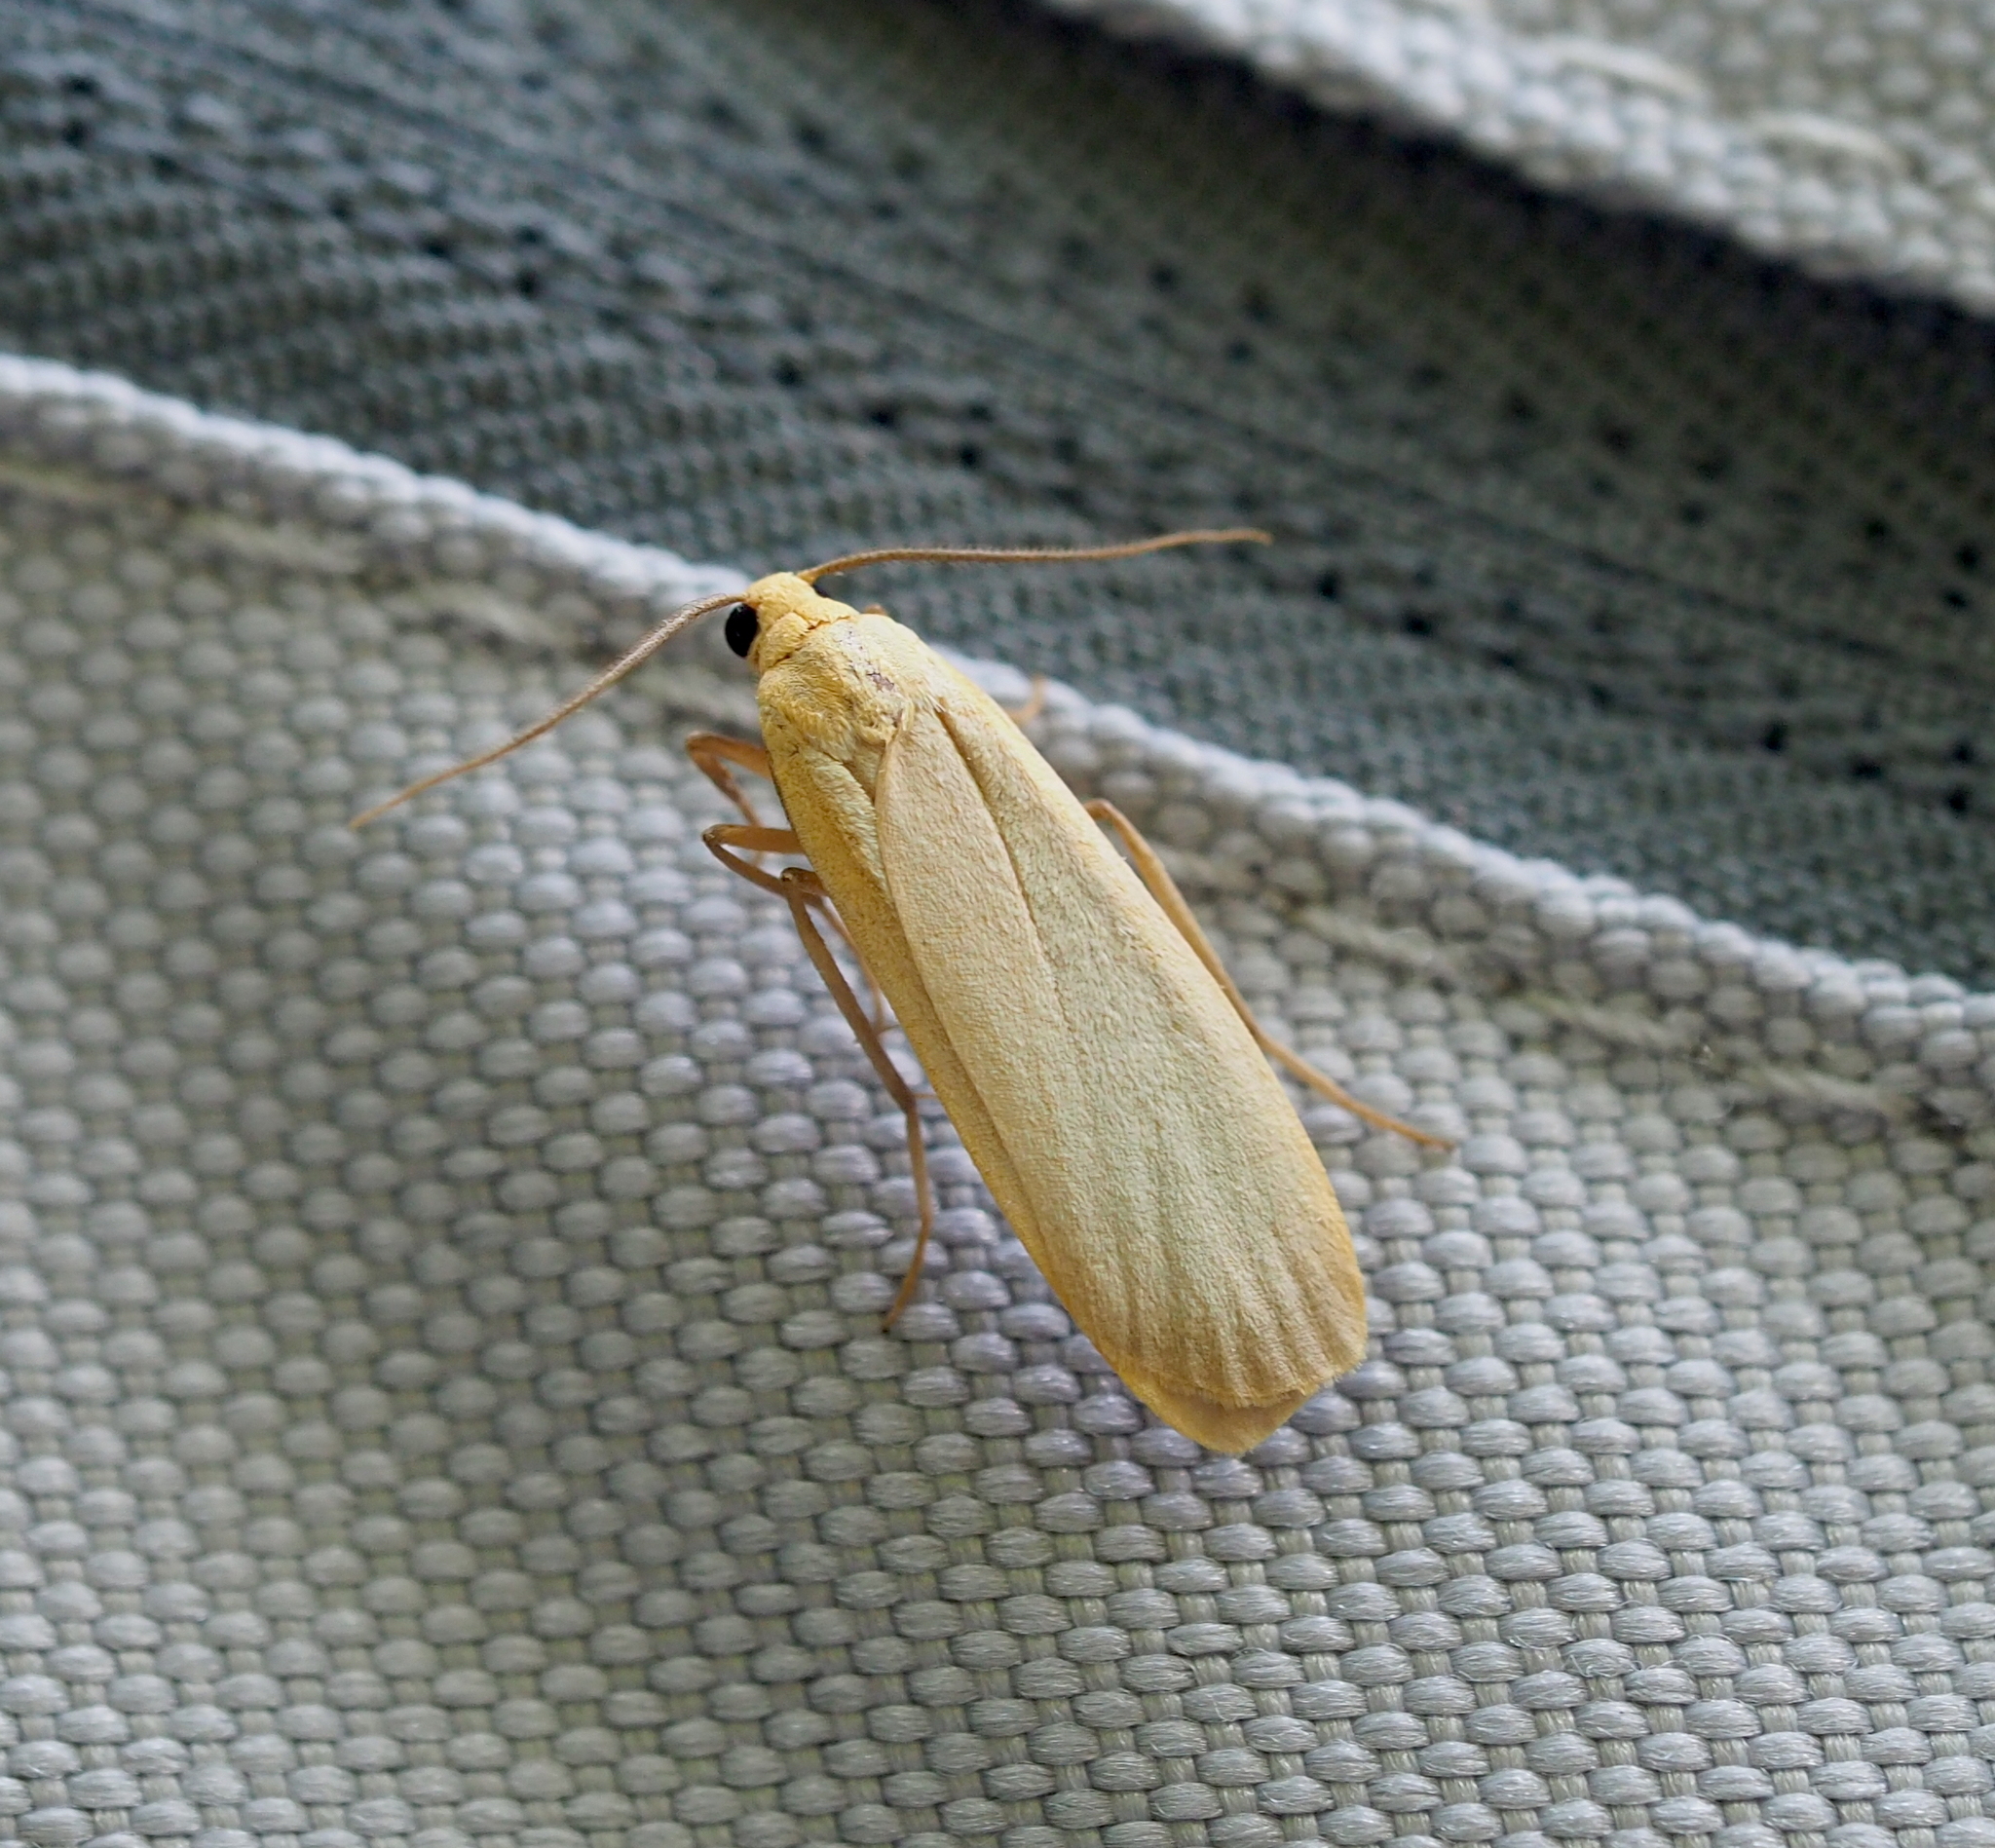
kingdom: Animalia
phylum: Arthropoda
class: Insecta
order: Lepidoptera
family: Erebidae
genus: Katha
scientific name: Katha depressa
